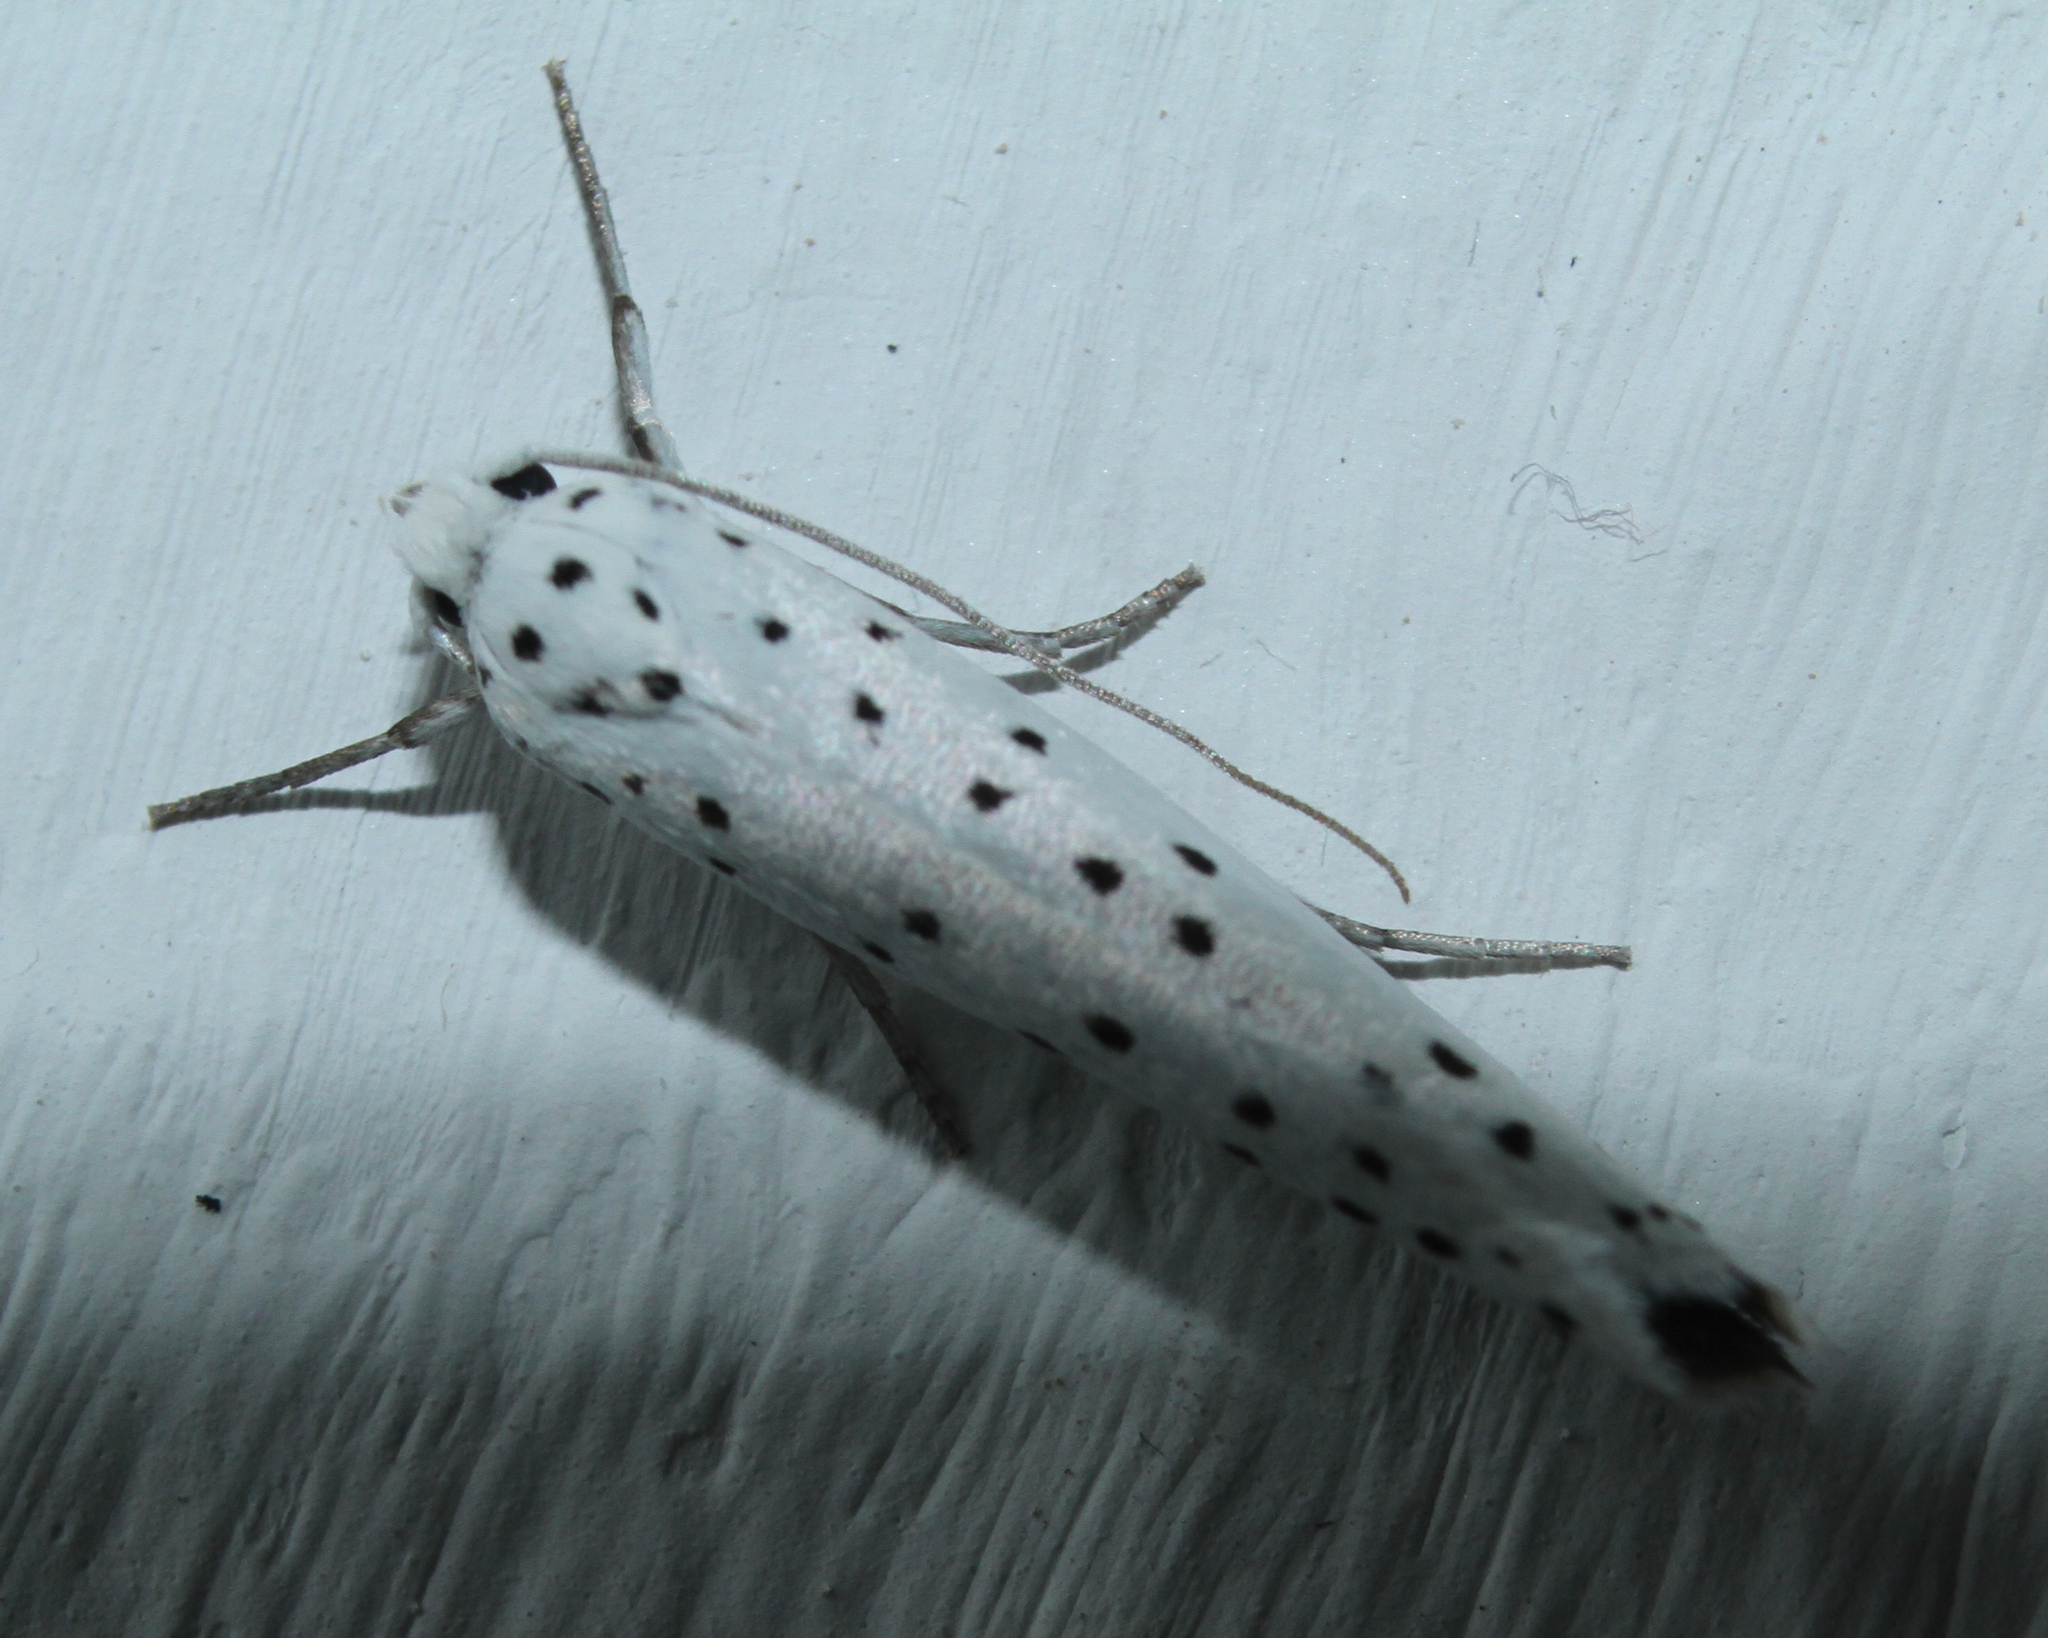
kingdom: Animalia
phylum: Arthropoda
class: Insecta
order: Lepidoptera
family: Yponomeutidae
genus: Yponomeuta
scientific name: Yponomeuta
